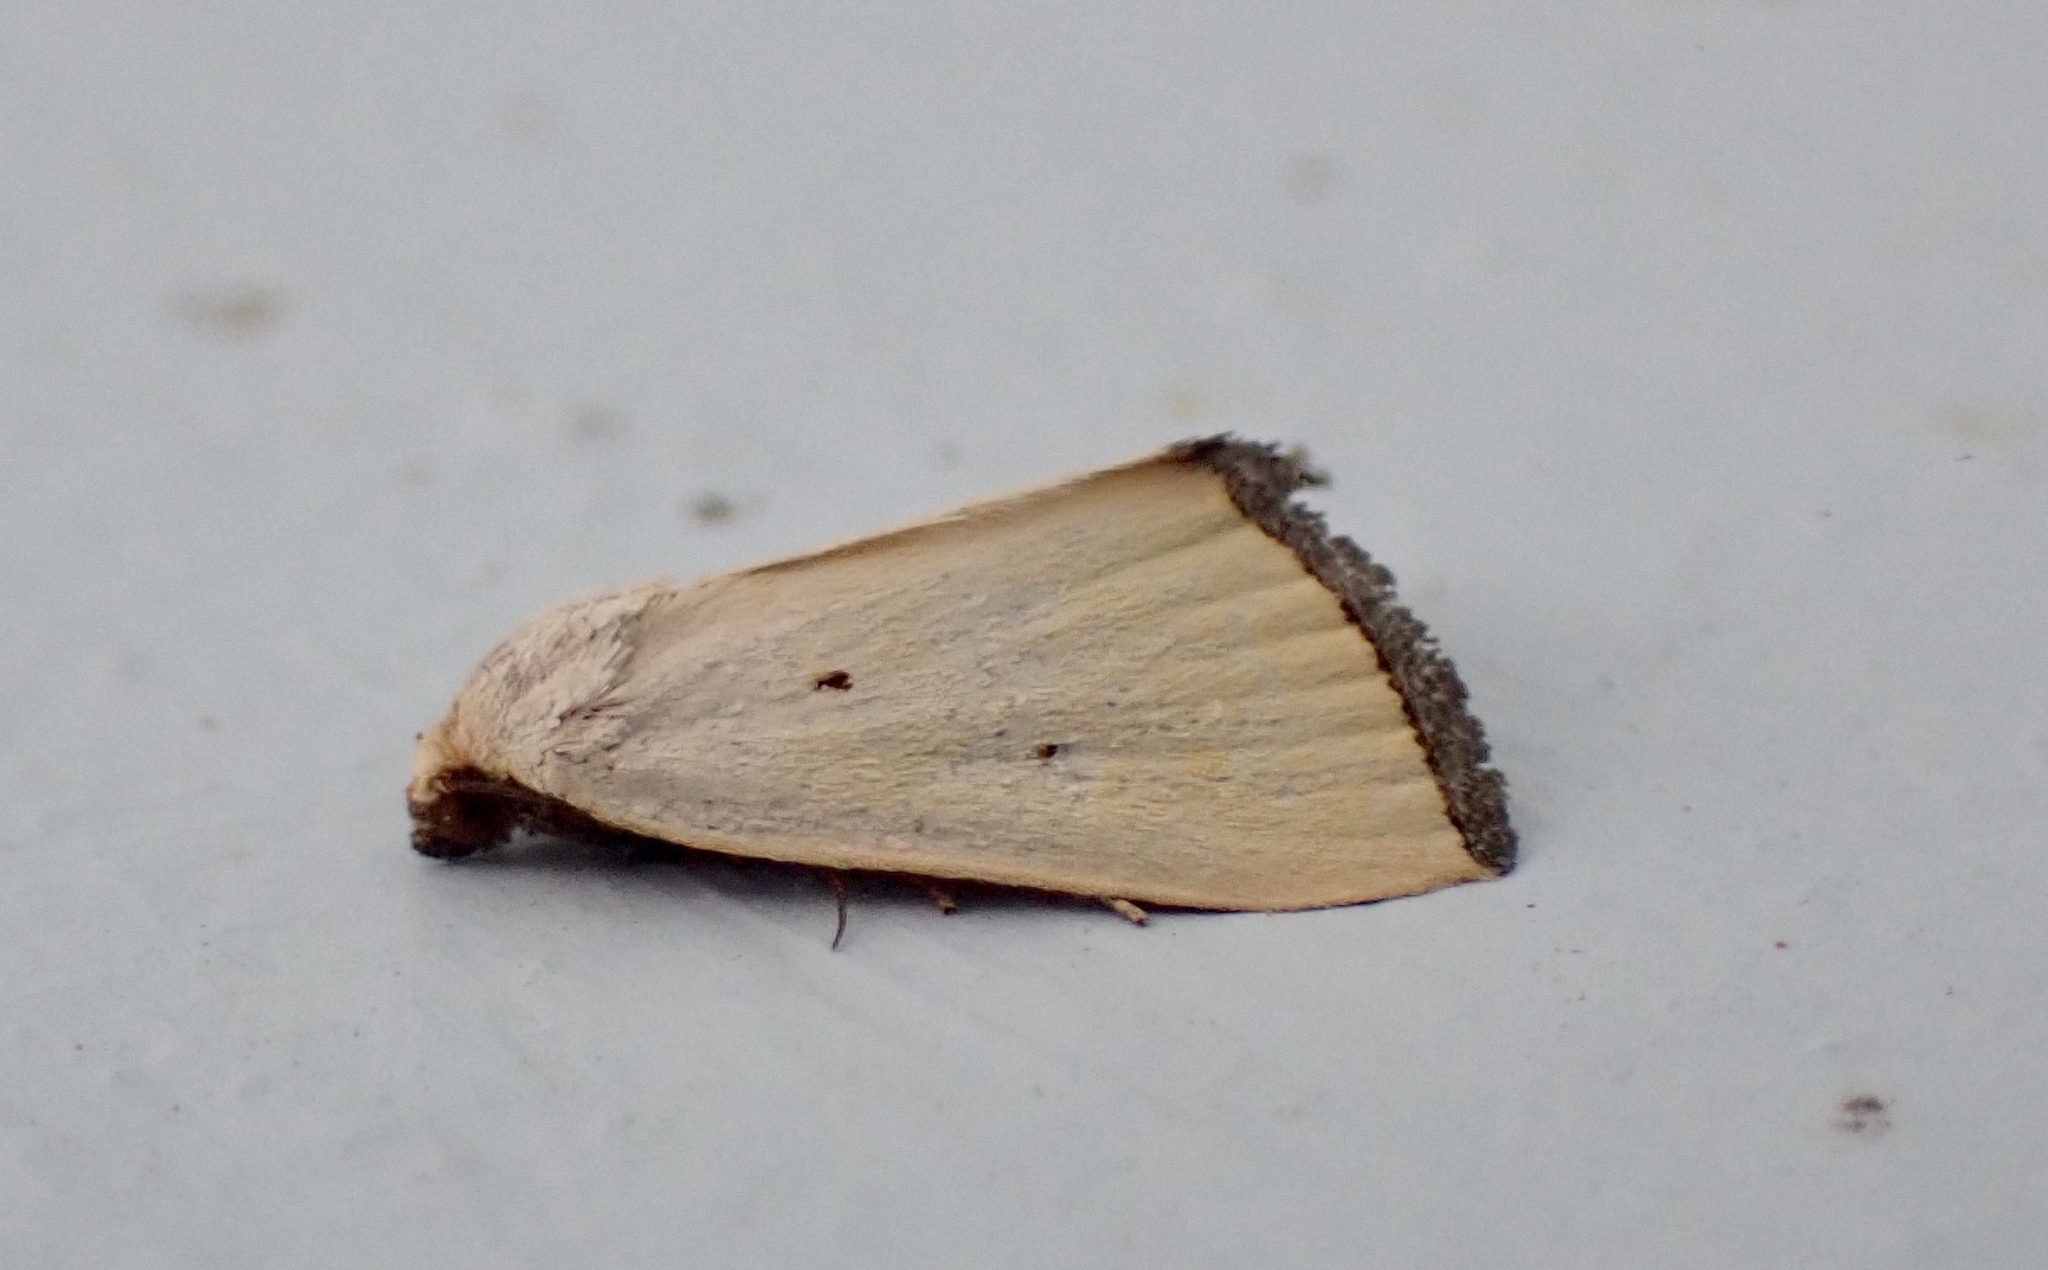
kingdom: Animalia
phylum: Arthropoda
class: Insecta
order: Lepidoptera
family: Noctuidae
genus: Marimatha
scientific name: Marimatha nigrofimbria
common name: Black-bordered lemon moth
